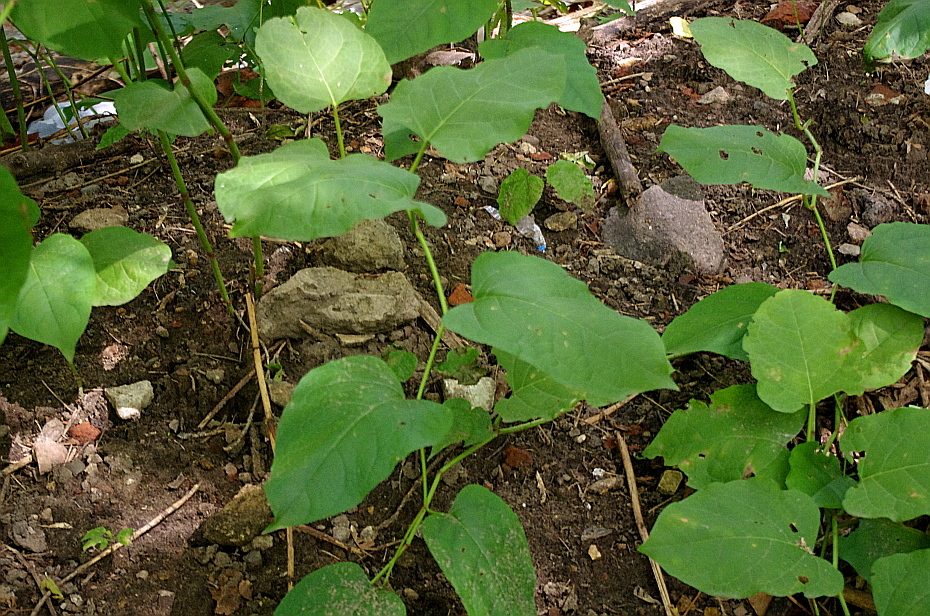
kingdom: Plantae
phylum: Tracheophyta
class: Magnoliopsida
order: Caryophyllales
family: Polygonaceae
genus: Reynoutria
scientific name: Reynoutria bohemica
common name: Bohemian knotweed
